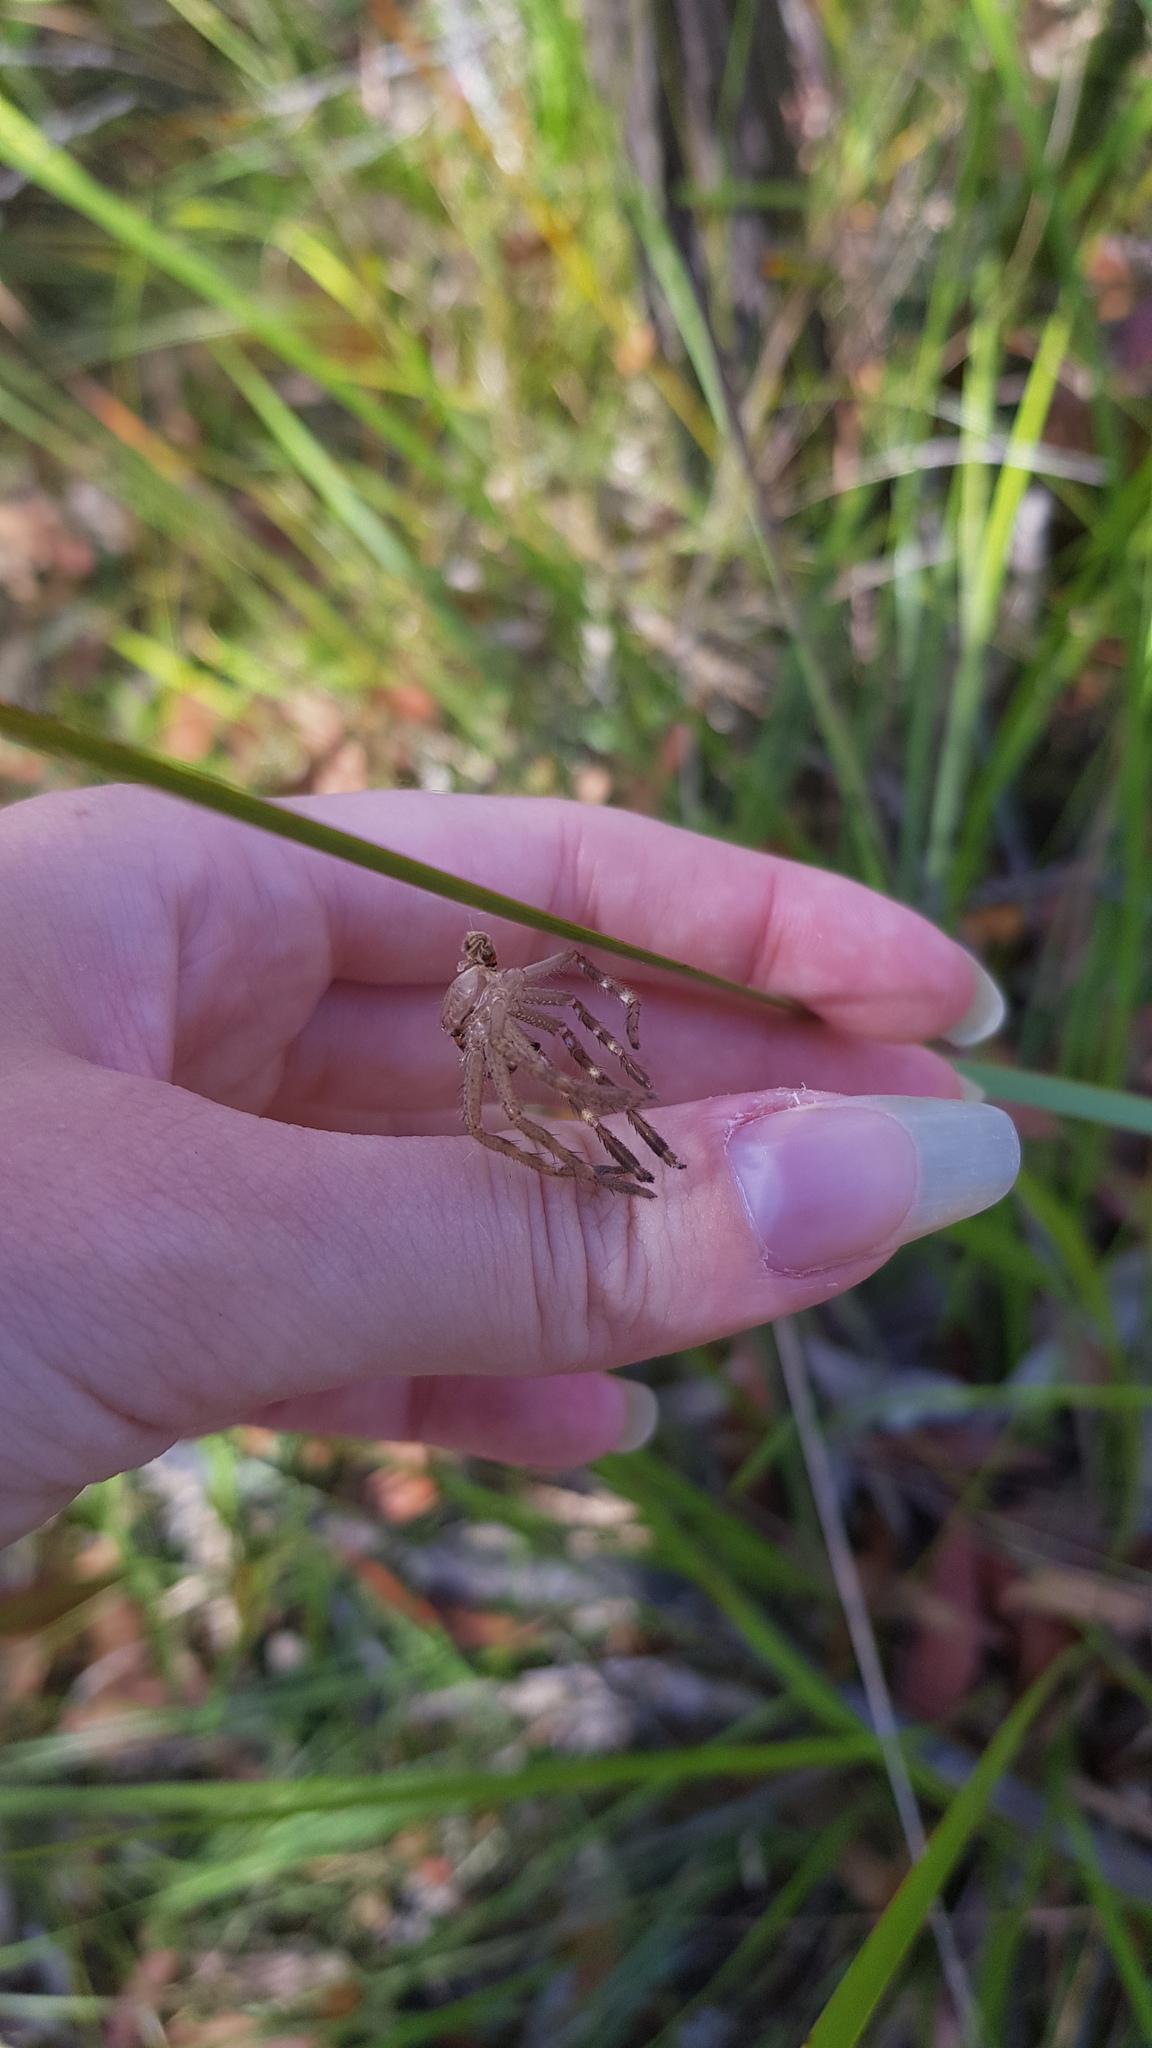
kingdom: Animalia
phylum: Arthropoda
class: Arachnida
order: Araneae
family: Sparassidae
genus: Neosparassus
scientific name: Neosparassus calligaster
